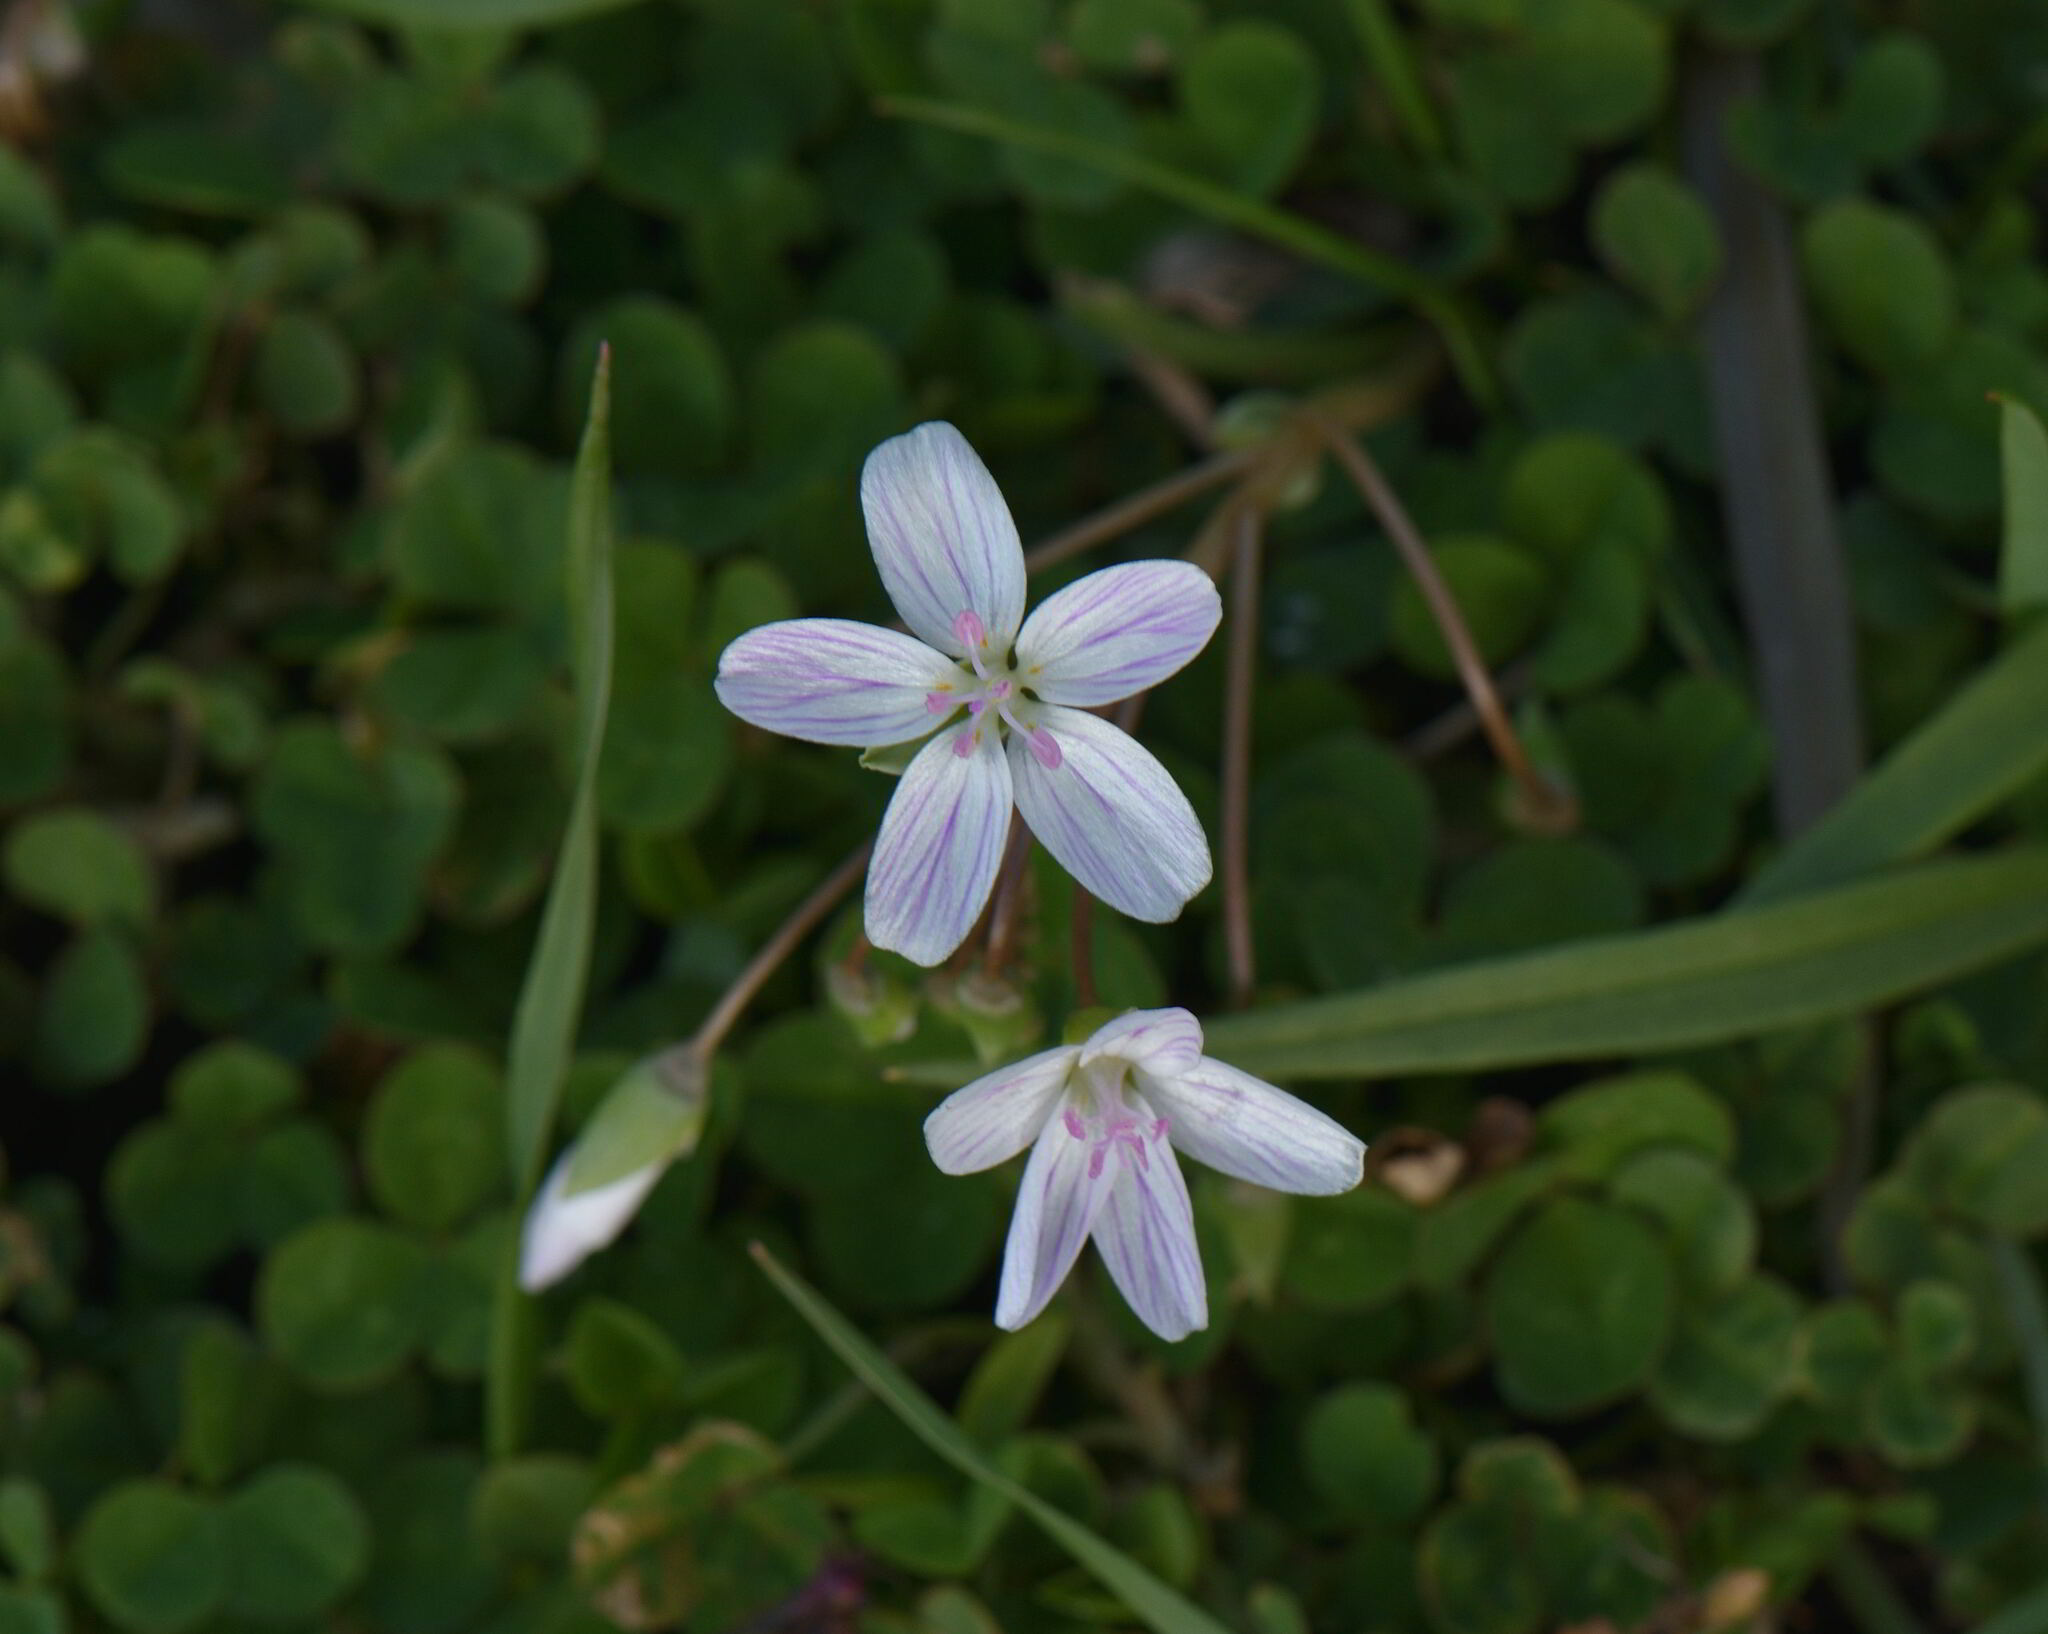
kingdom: Plantae
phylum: Tracheophyta
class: Magnoliopsida
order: Caryophyllales
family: Montiaceae
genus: Claytonia
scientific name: Claytonia virginica
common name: Virginia springbeauty
